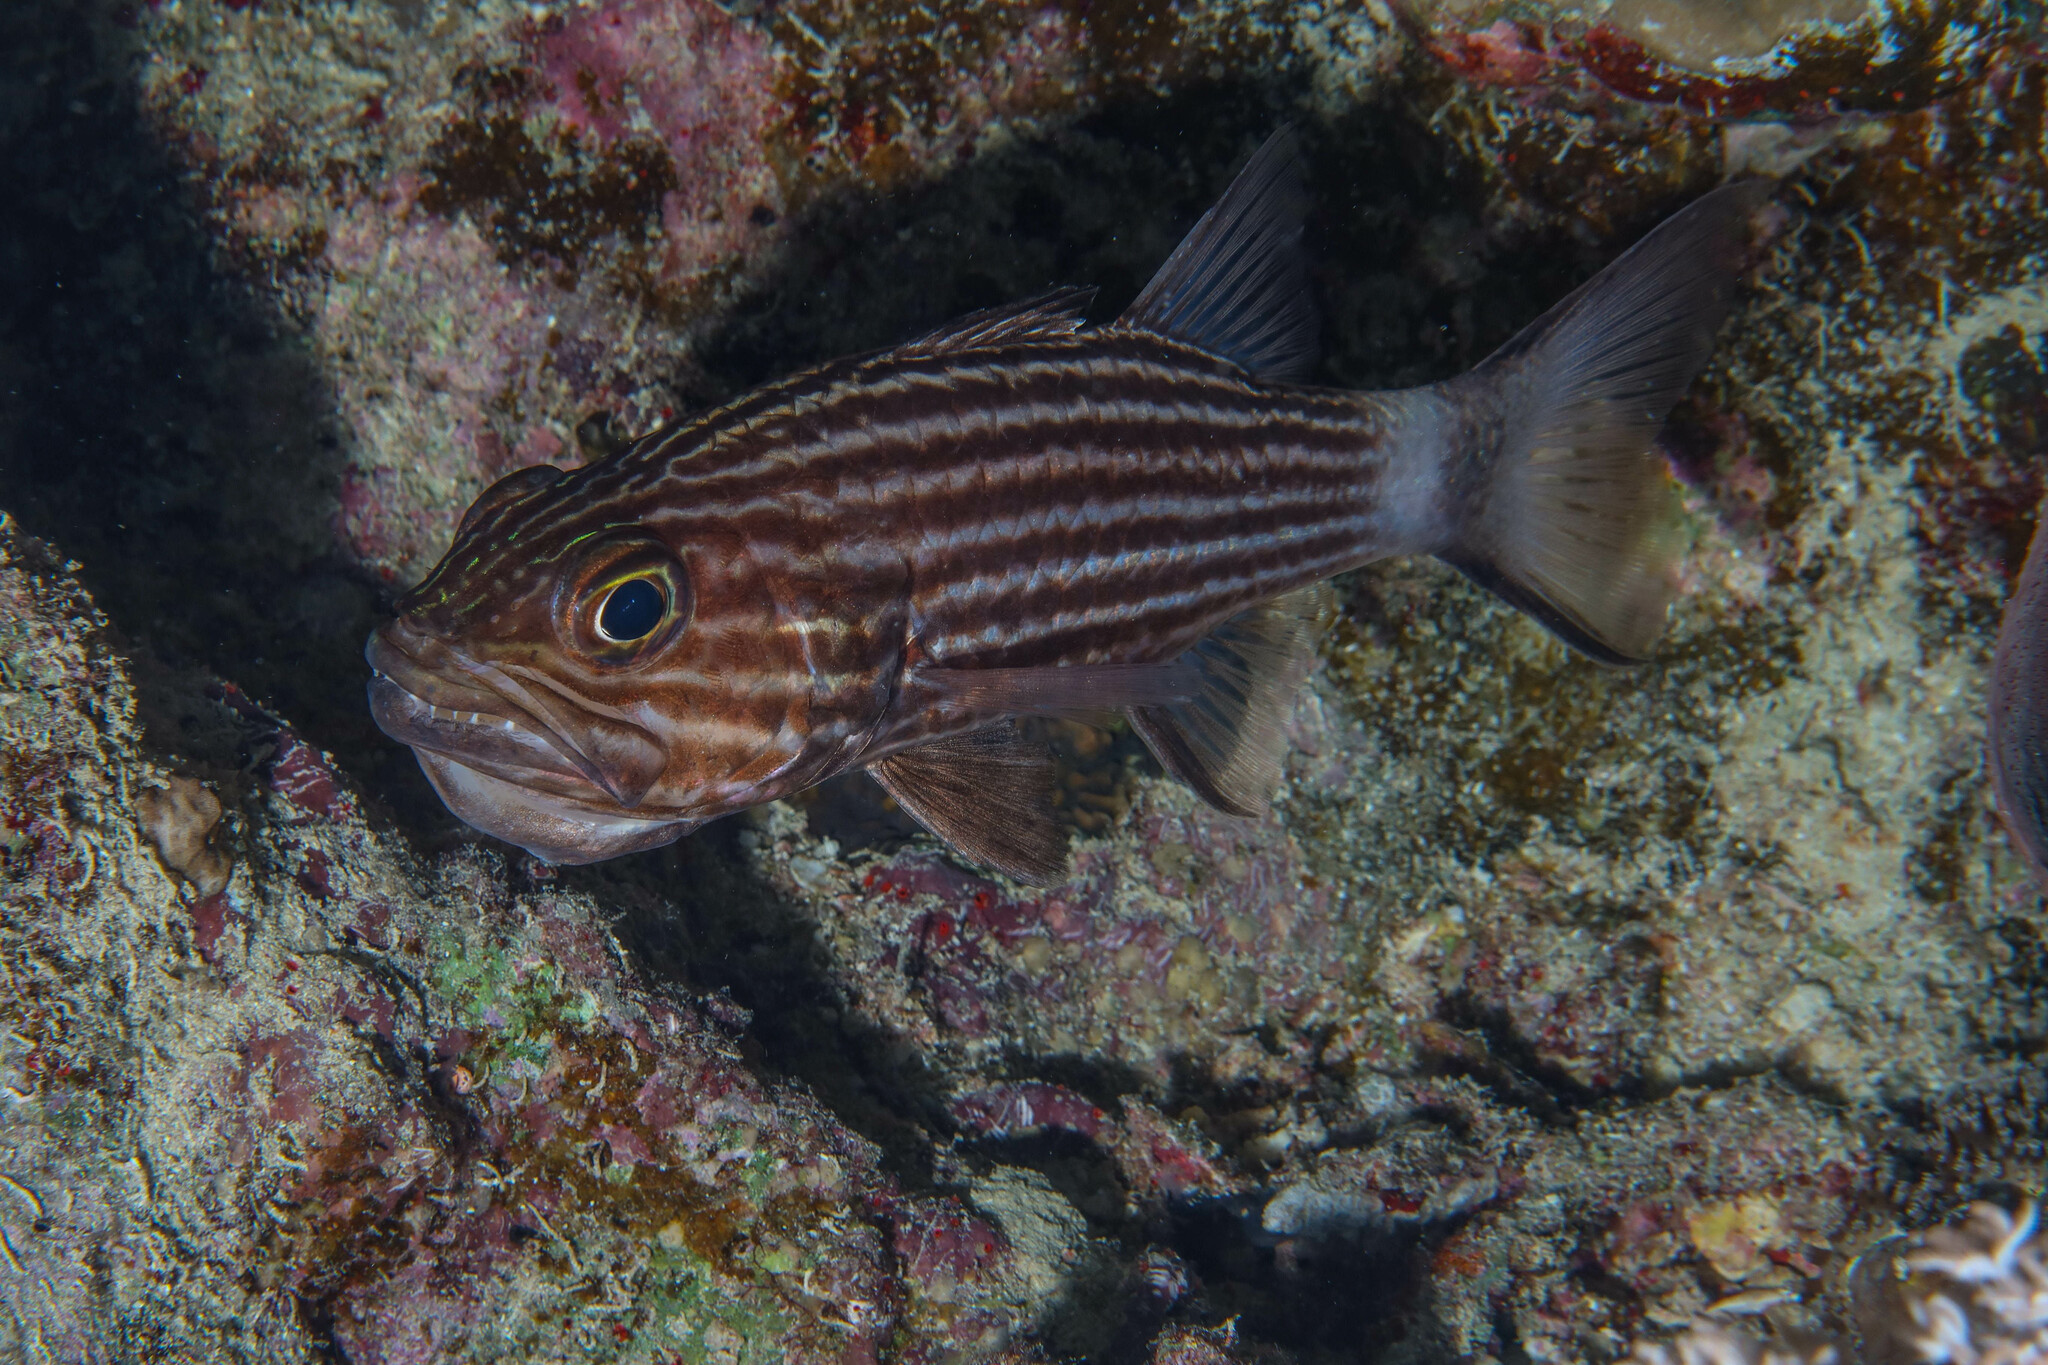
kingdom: Animalia
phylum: Chordata
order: Perciformes
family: Apogonidae
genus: Cheilodipterus
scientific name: Cheilodipterus macrodon
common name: Eight-lined cardinalfish
